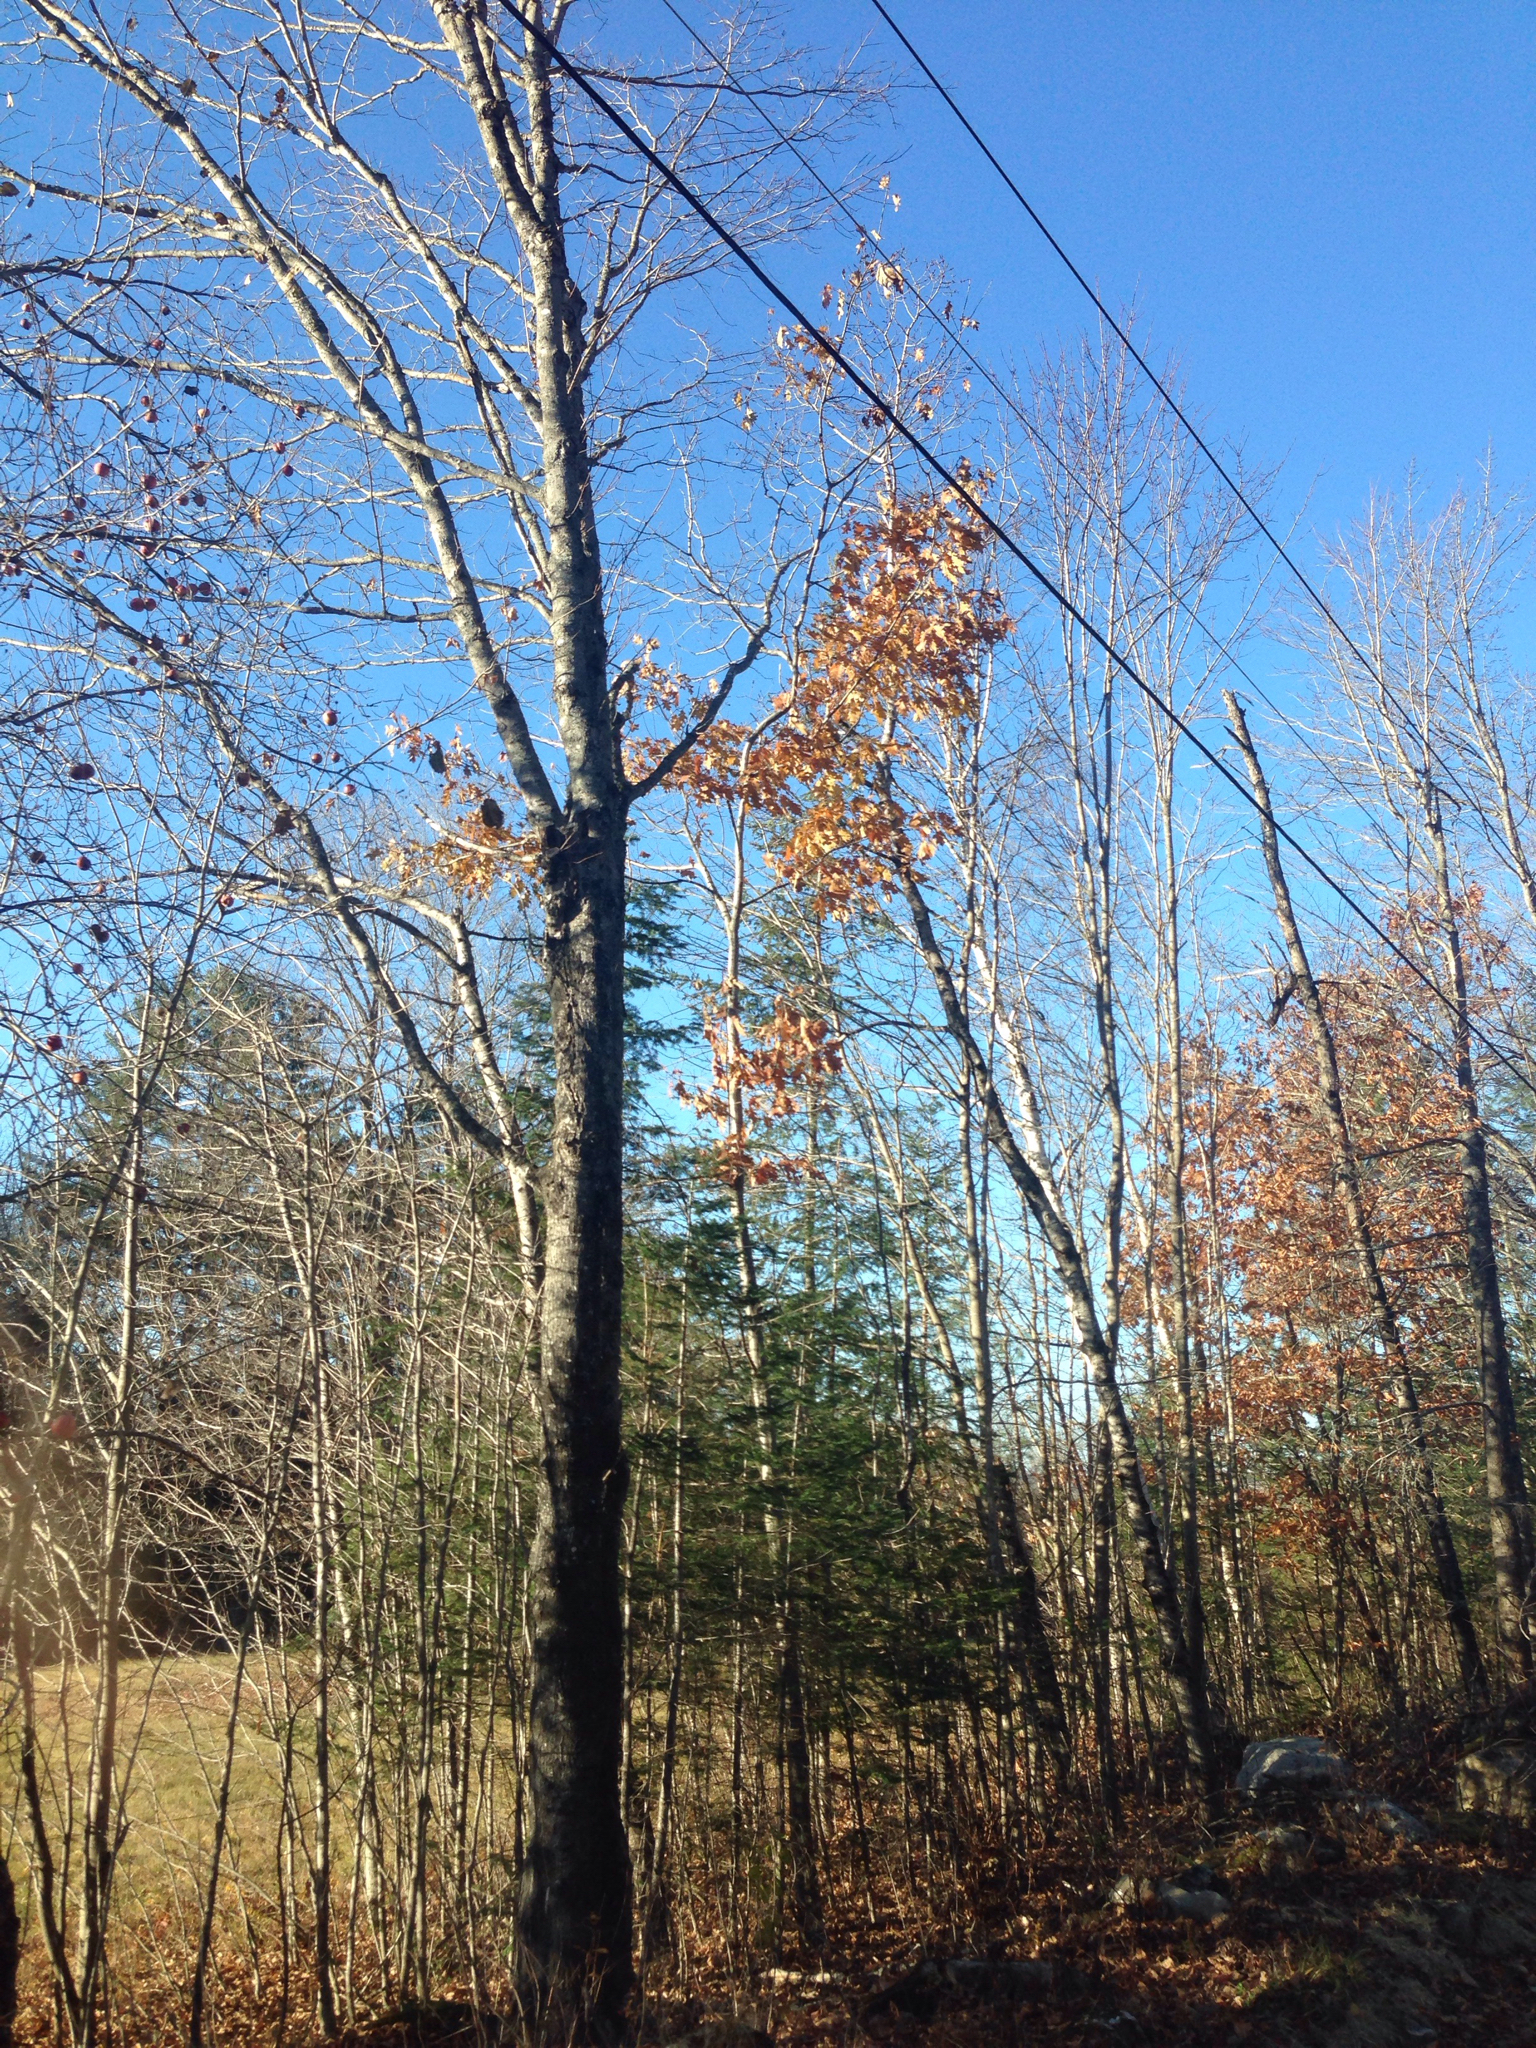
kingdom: Plantae
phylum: Tracheophyta
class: Magnoliopsida
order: Fagales
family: Fagaceae
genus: Quercus
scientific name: Quercus rubra
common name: Red oak
